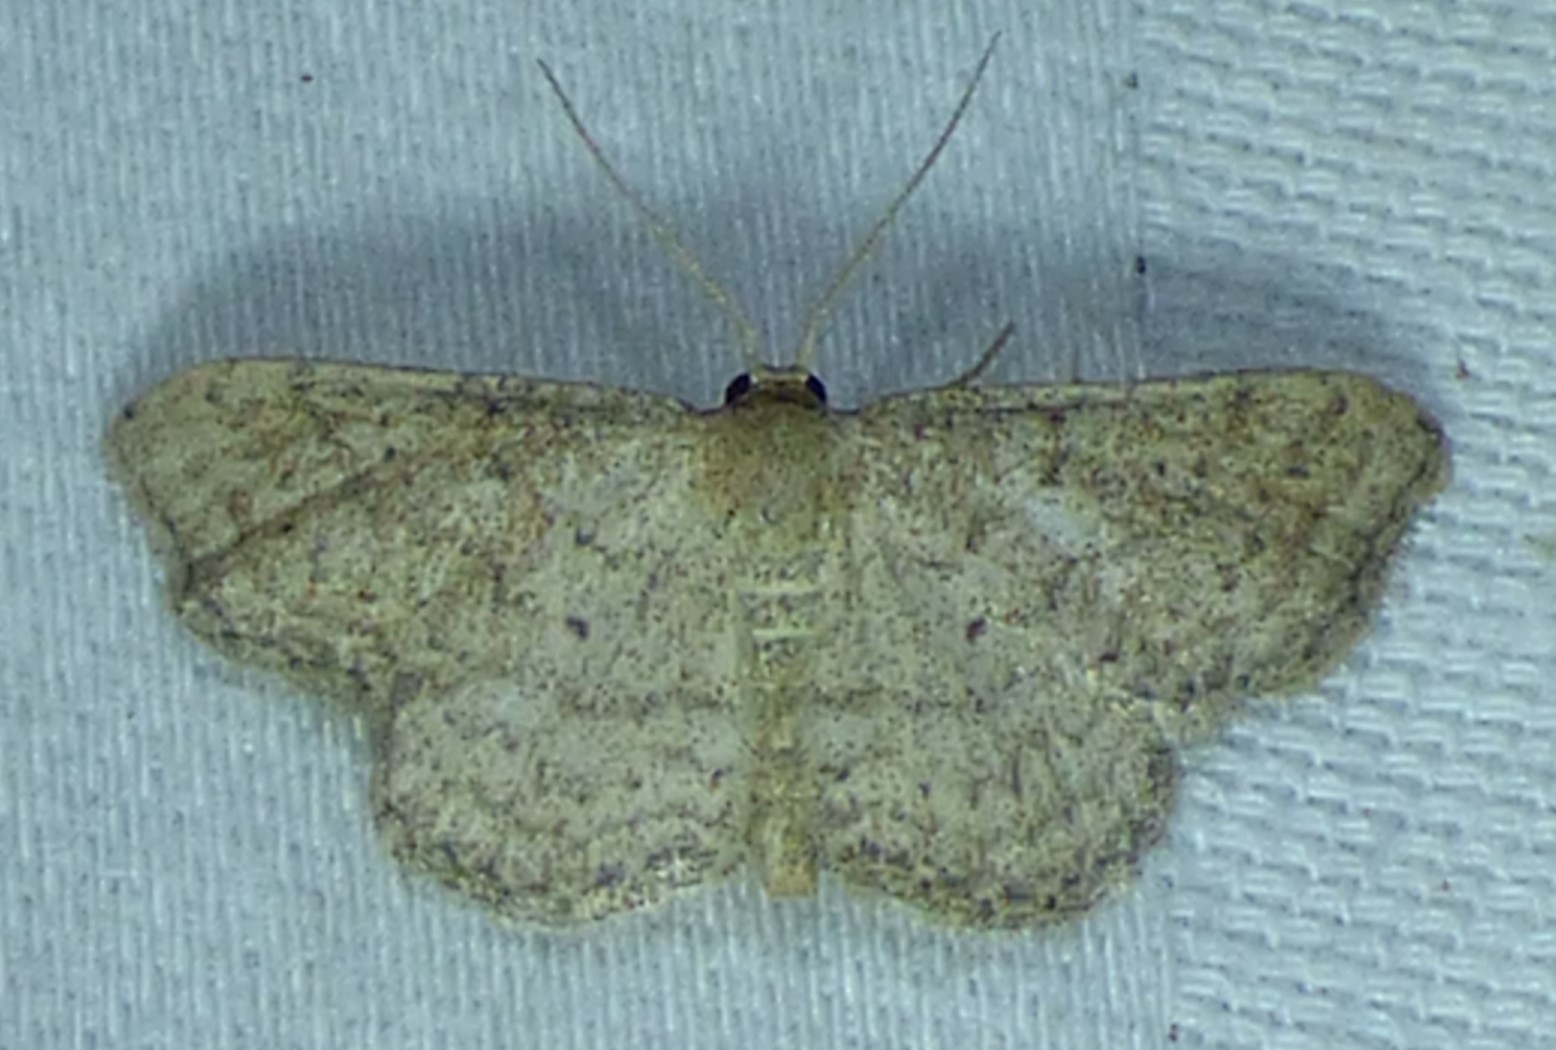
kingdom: Animalia
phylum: Arthropoda
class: Insecta
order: Lepidoptera
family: Geometridae
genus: Lobocleta
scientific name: Lobocleta ossularia
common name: Drab brown wave
